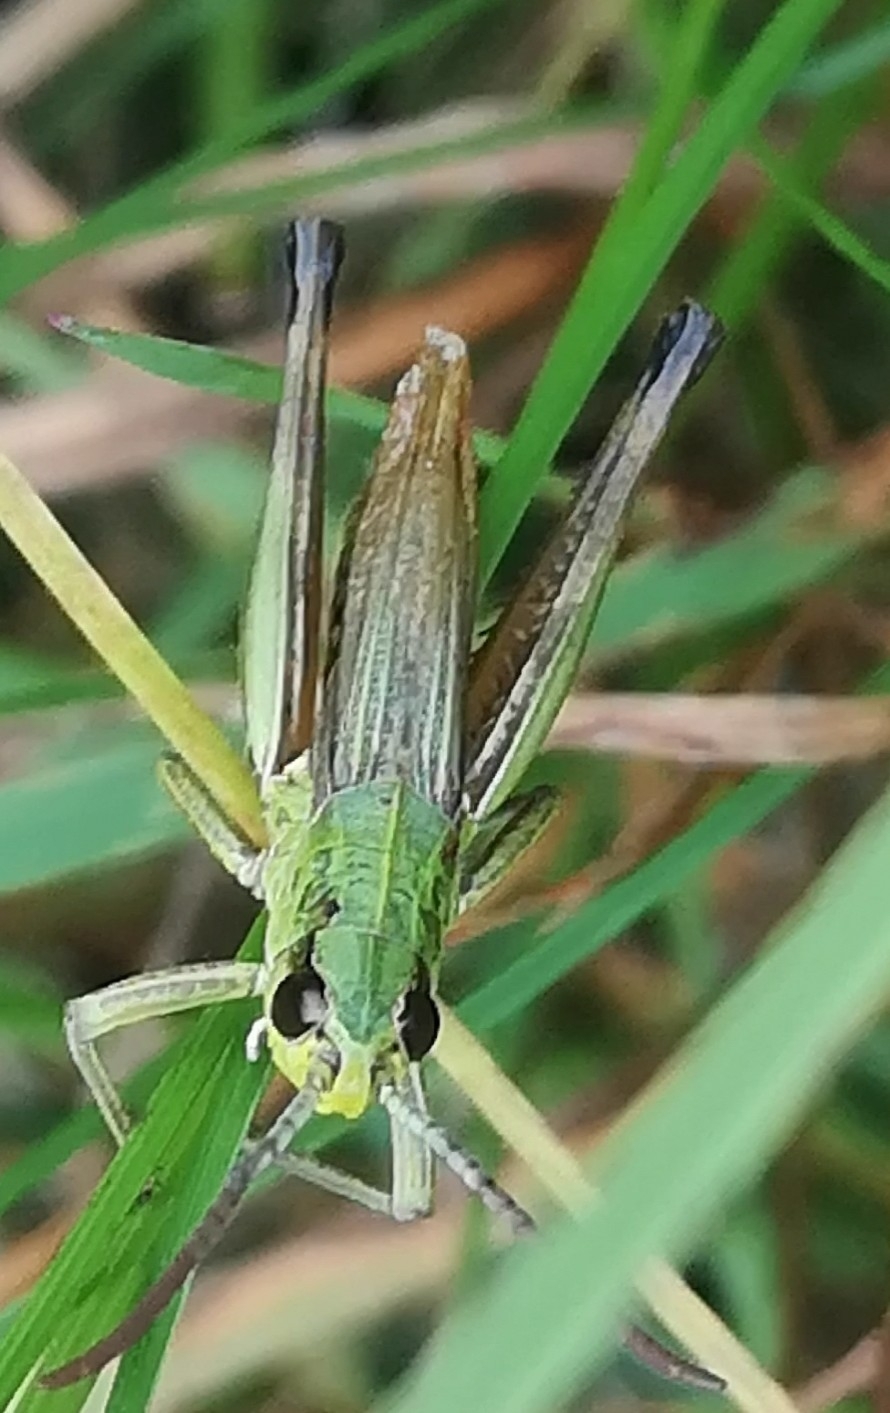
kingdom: Animalia
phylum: Arthropoda
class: Insecta
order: Orthoptera
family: Acrididae
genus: Pseudochorthippus
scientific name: Pseudochorthippus parallelus
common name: Meadow grasshopper
